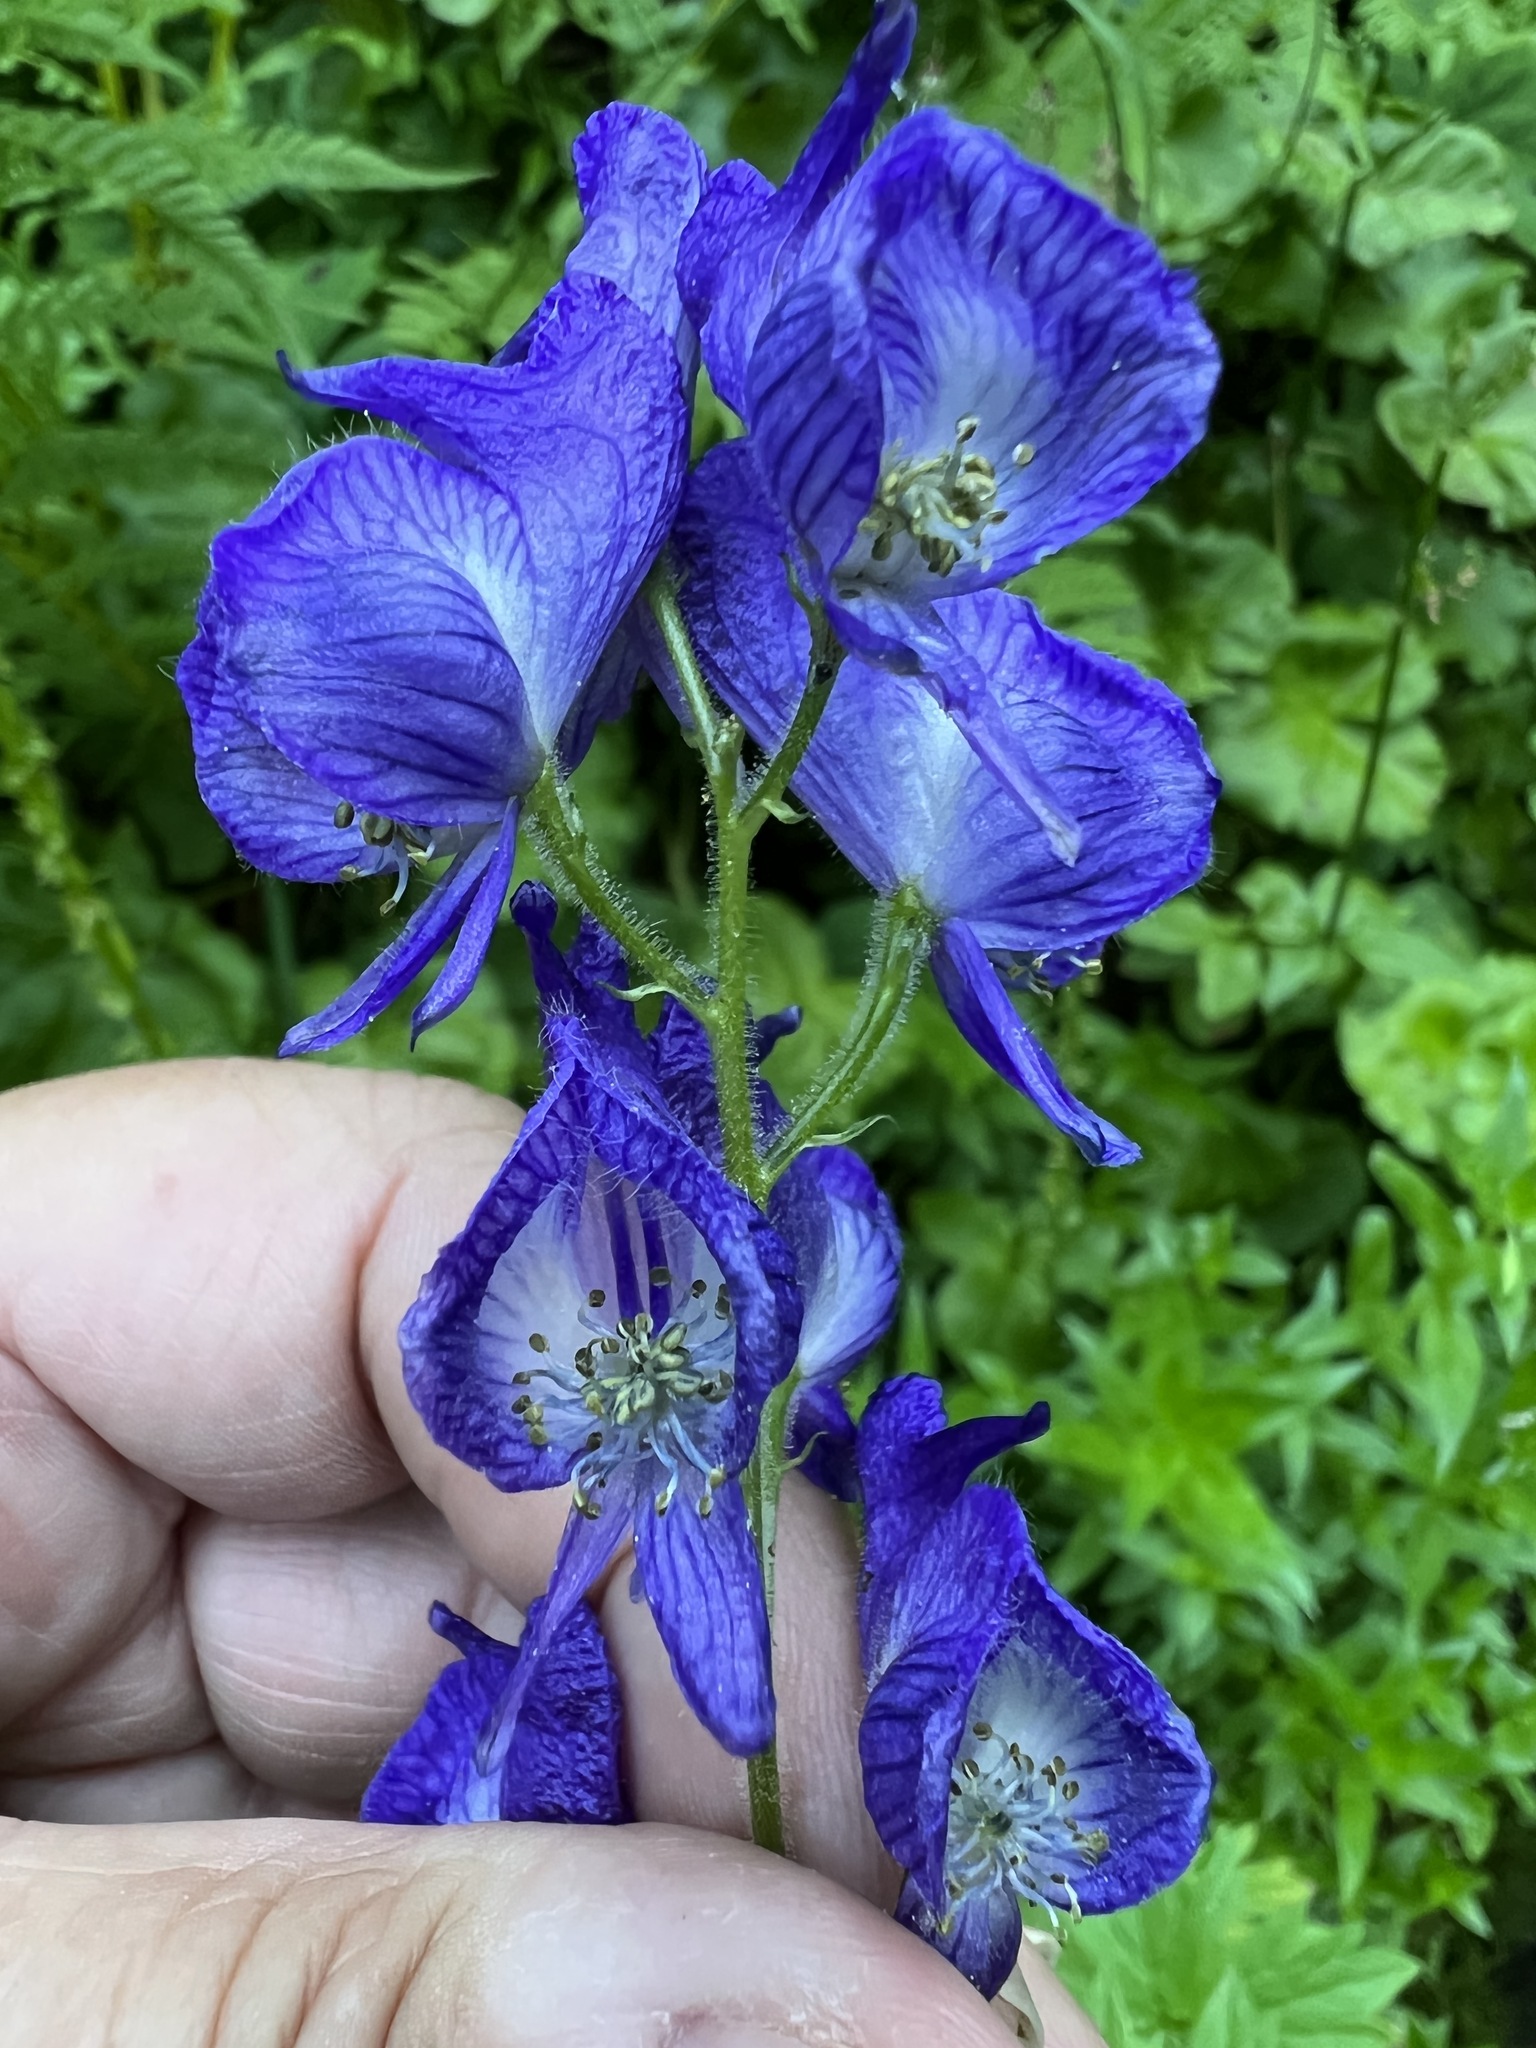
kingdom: Plantae
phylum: Tracheophyta
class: Magnoliopsida
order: Ranunculales
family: Ranunculaceae
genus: Aconitum
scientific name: Aconitum columbianum
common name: Columbia aconite
